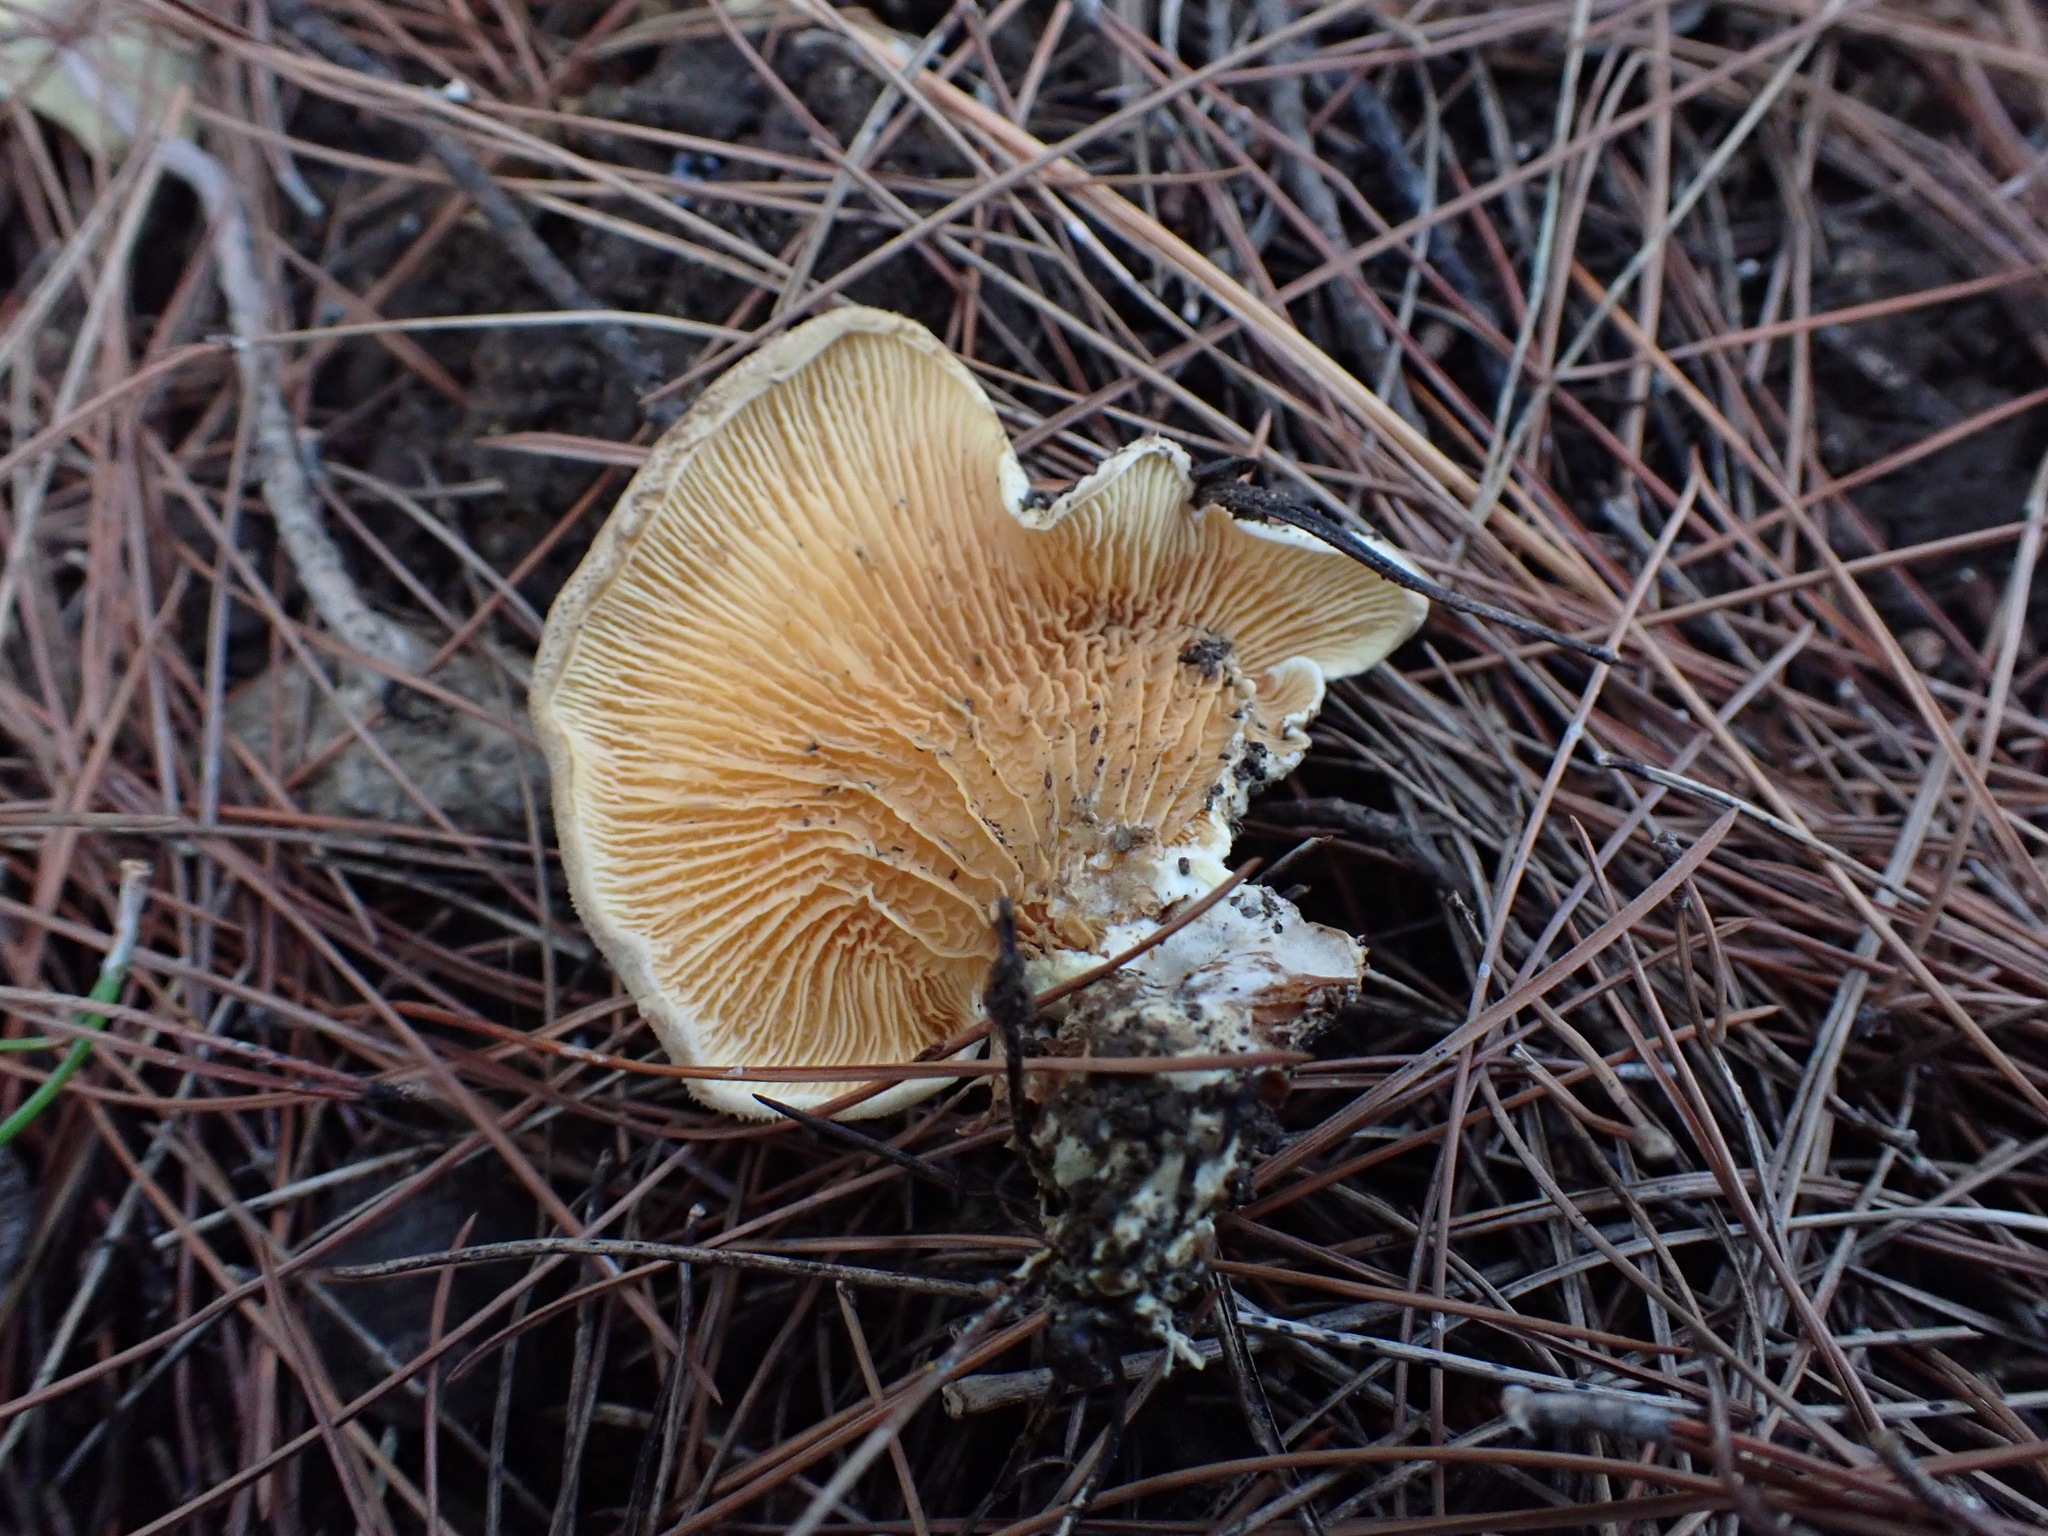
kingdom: Fungi
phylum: Basidiomycota
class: Agaricomycetes
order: Boletales
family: Tapinellaceae
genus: Tapinella
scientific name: Tapinella panuoides
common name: Oyster rollrim
